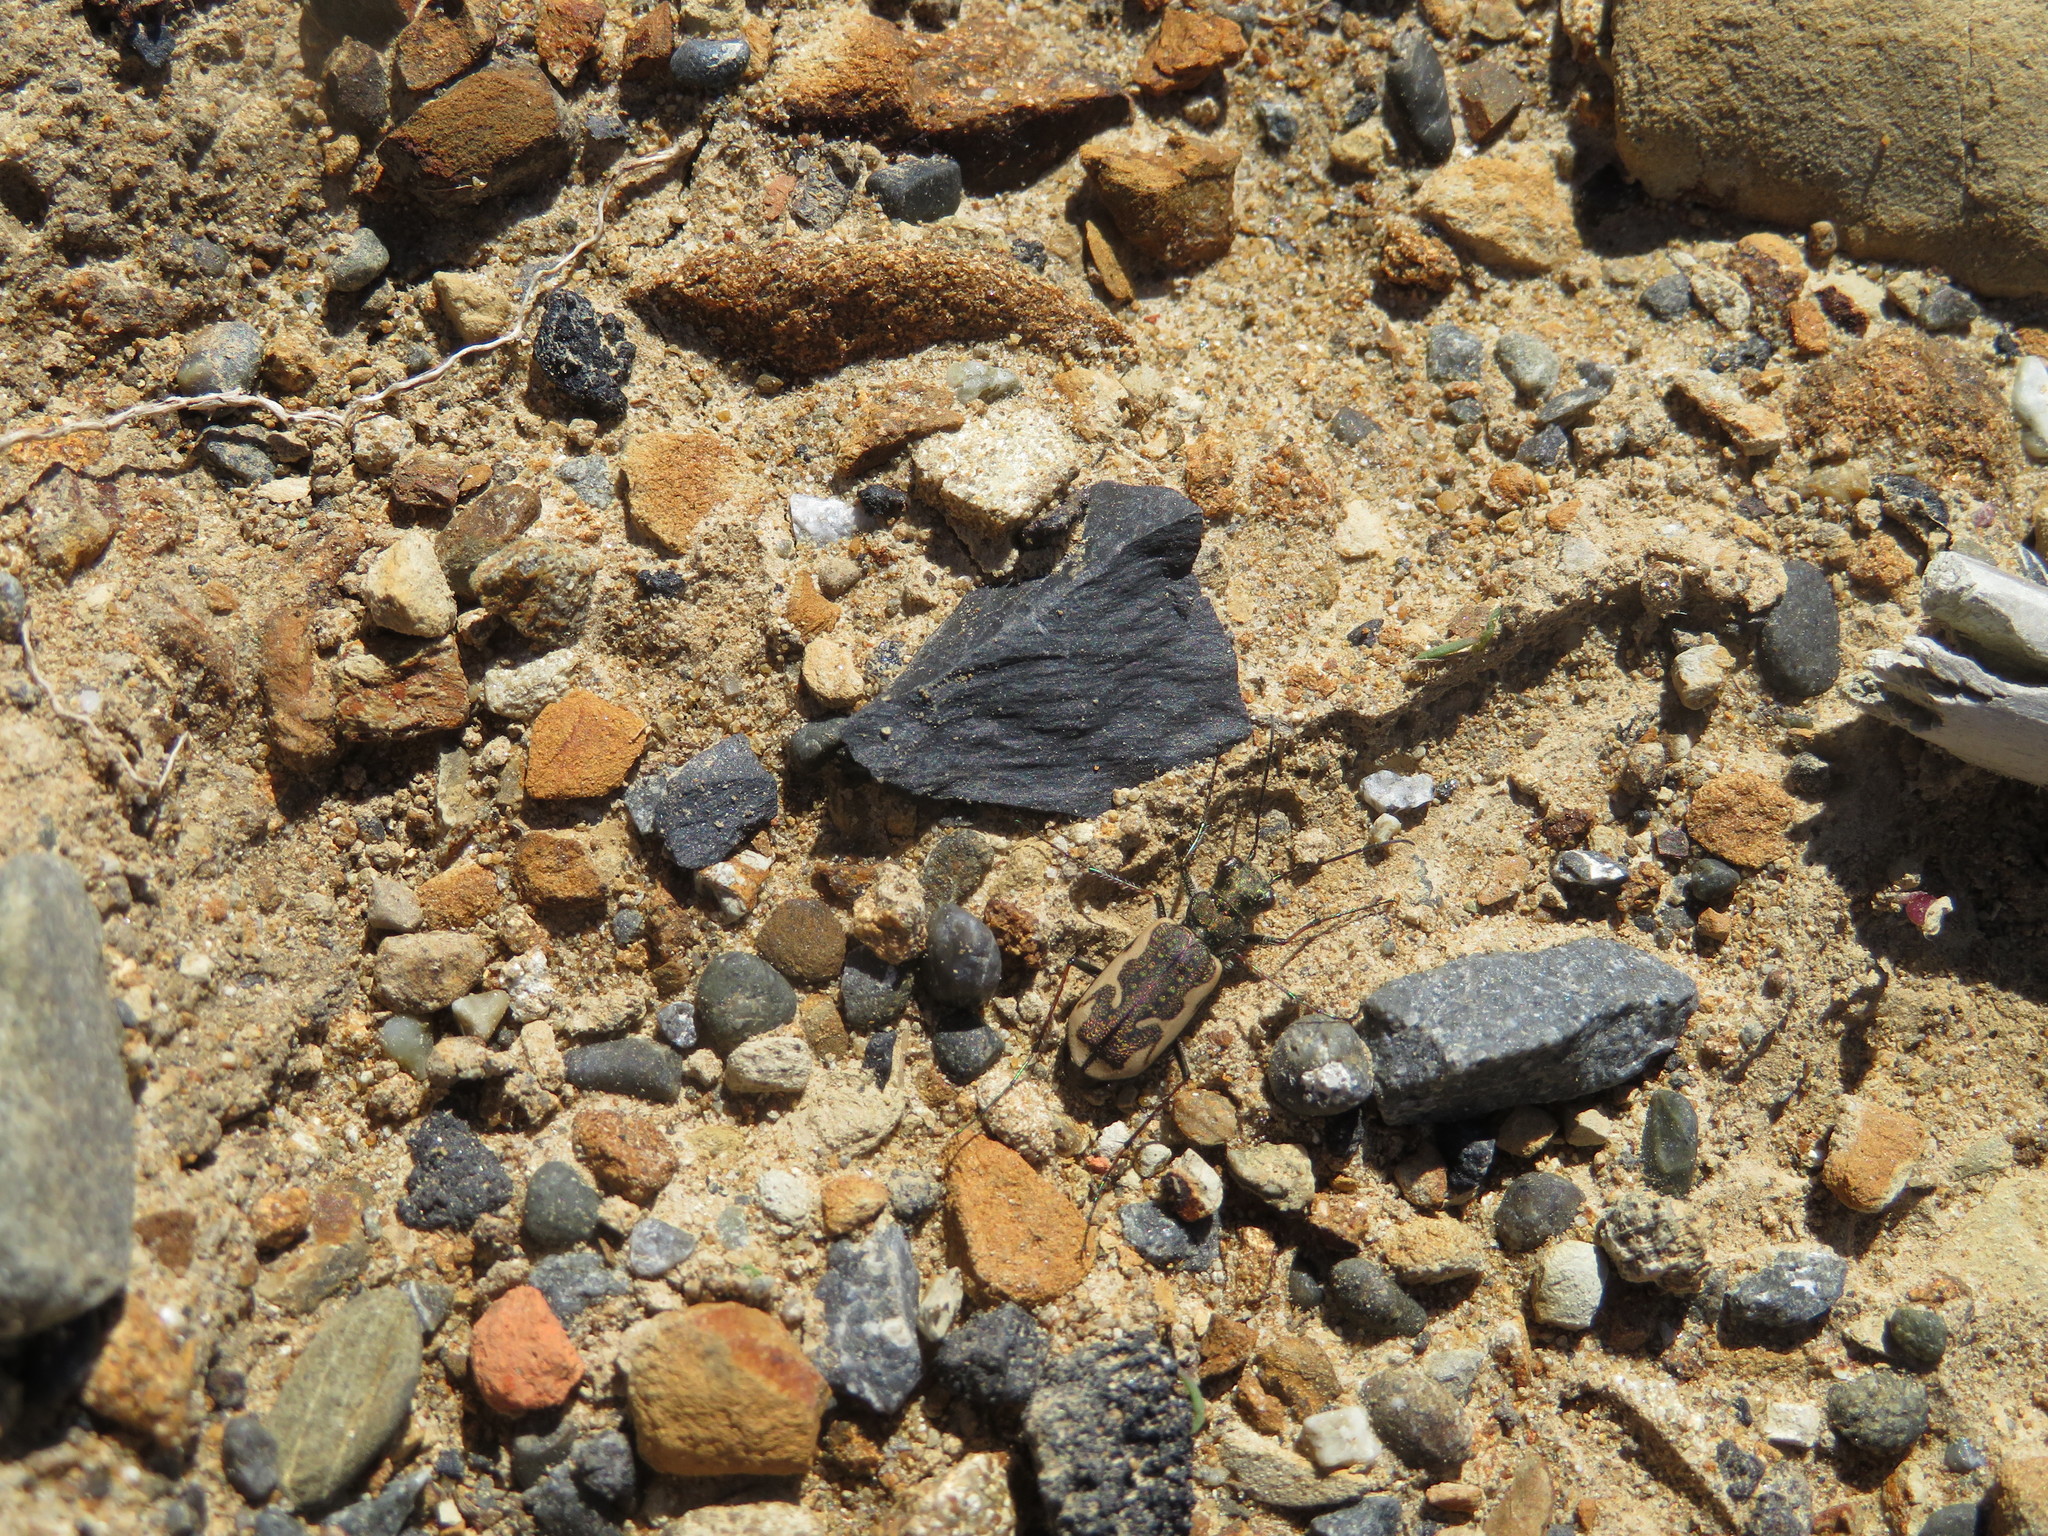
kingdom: Animalia
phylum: Arthropoda
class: Insecta
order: Coleoptera
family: Carabidae
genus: Neocicindela
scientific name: Neocicindela tuberculata
